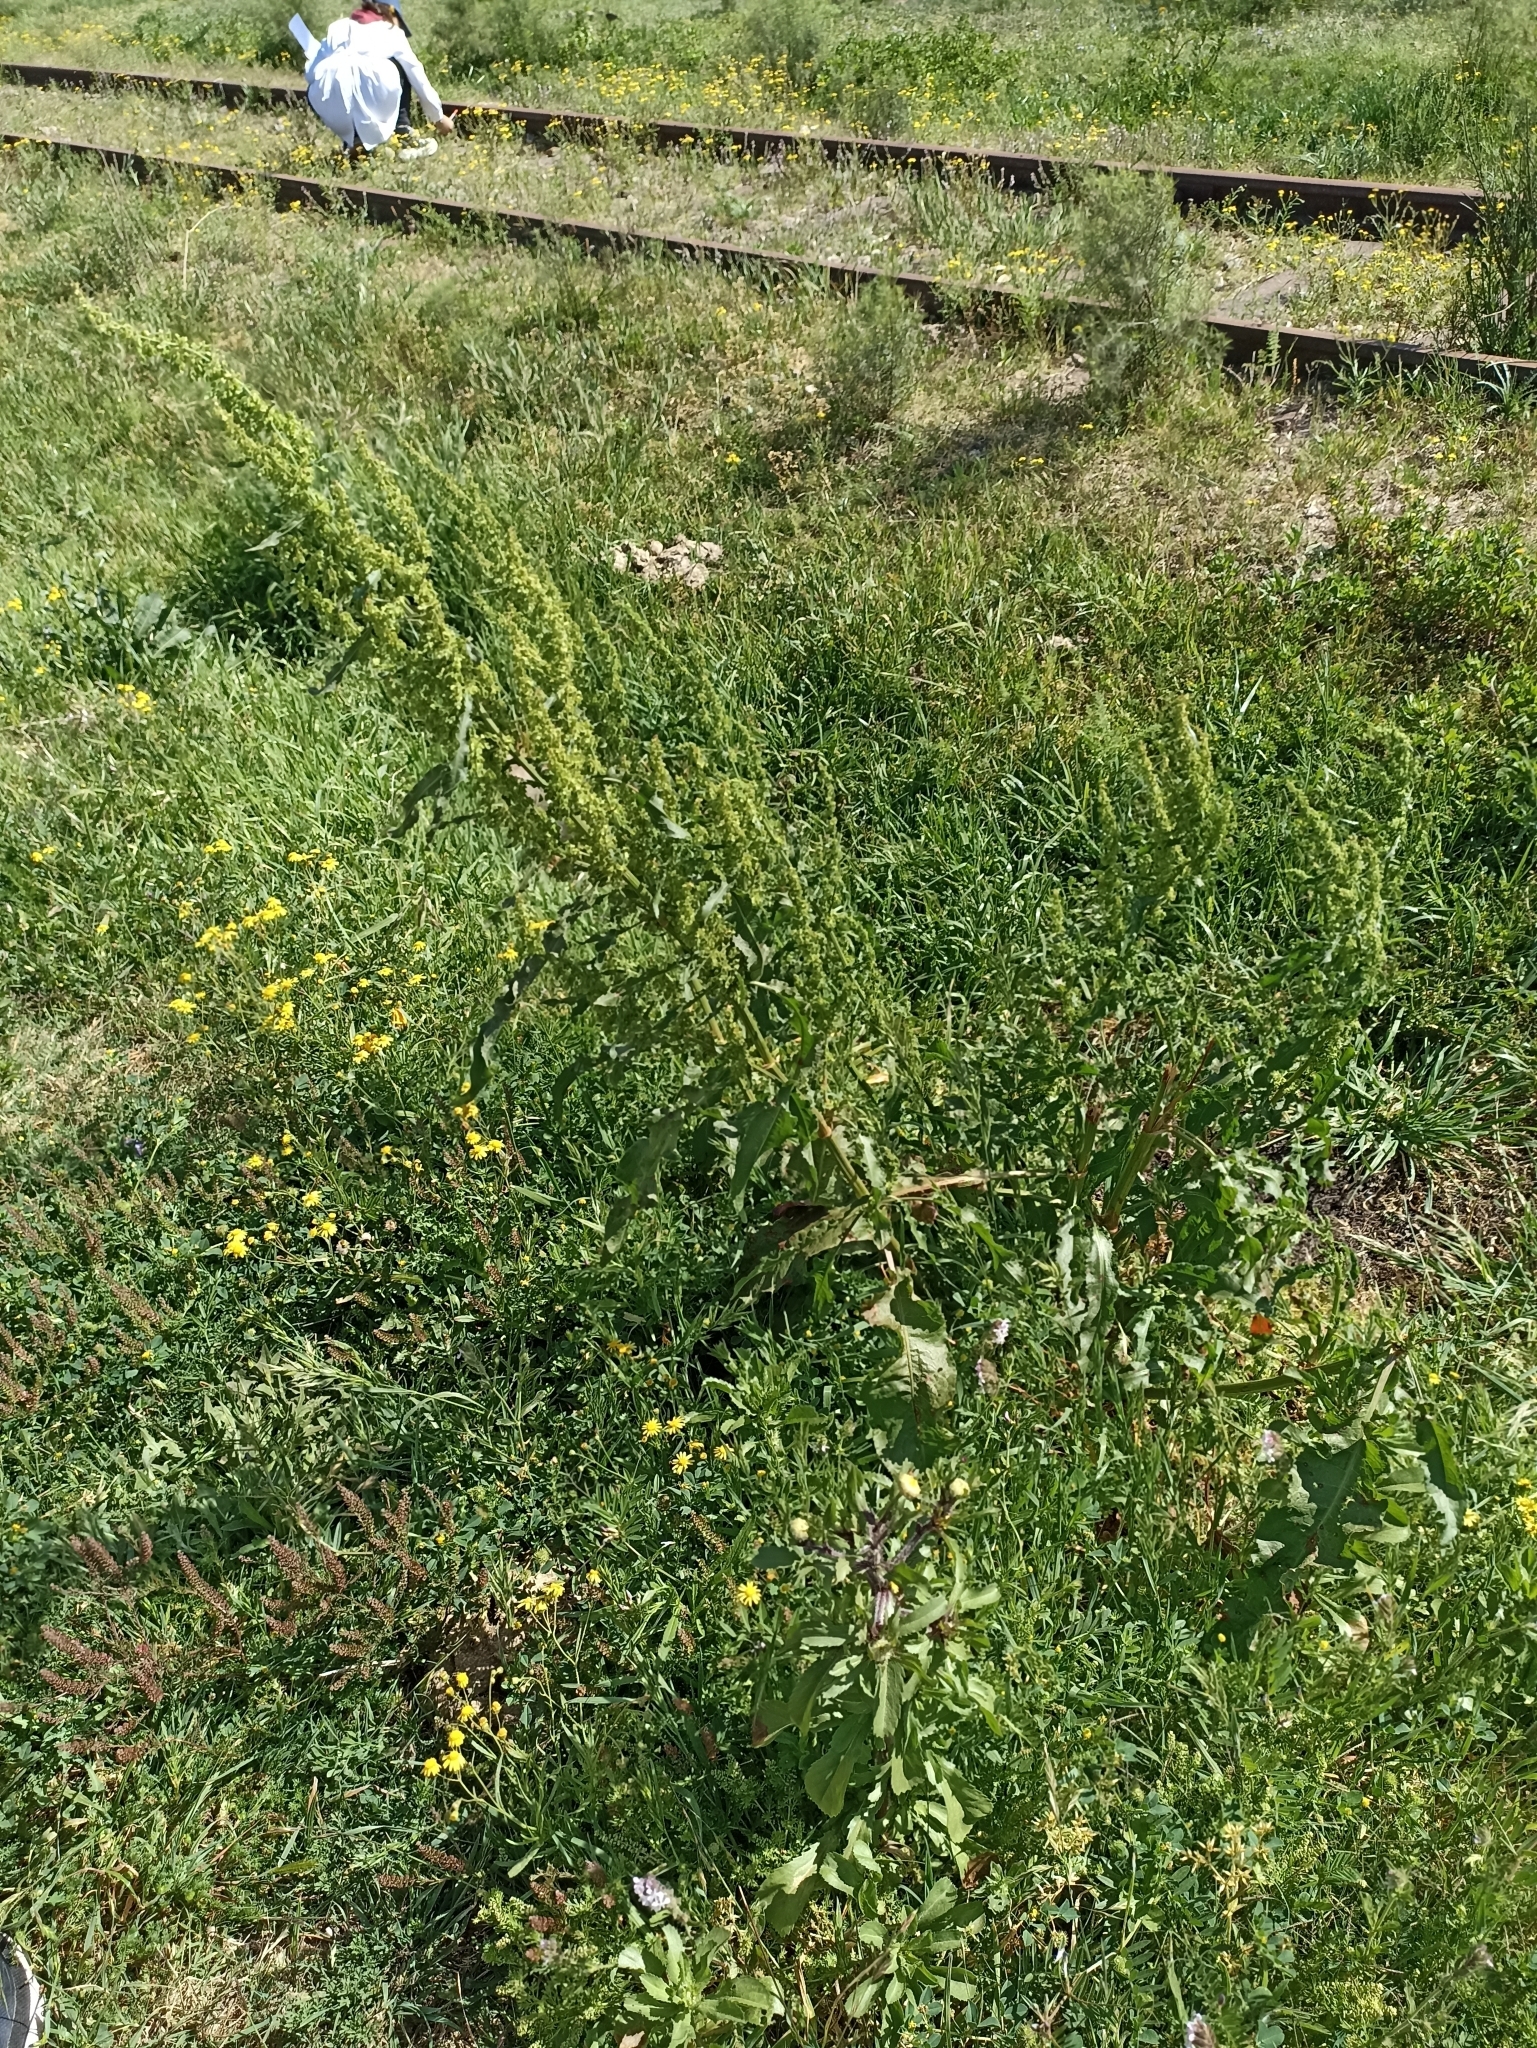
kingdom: Plantae
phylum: Tracheophyta
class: Magnoliopsida
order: Caryophyllales
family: Polygonaceae
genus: Rumex
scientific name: Rumex crispus
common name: Curled dock
